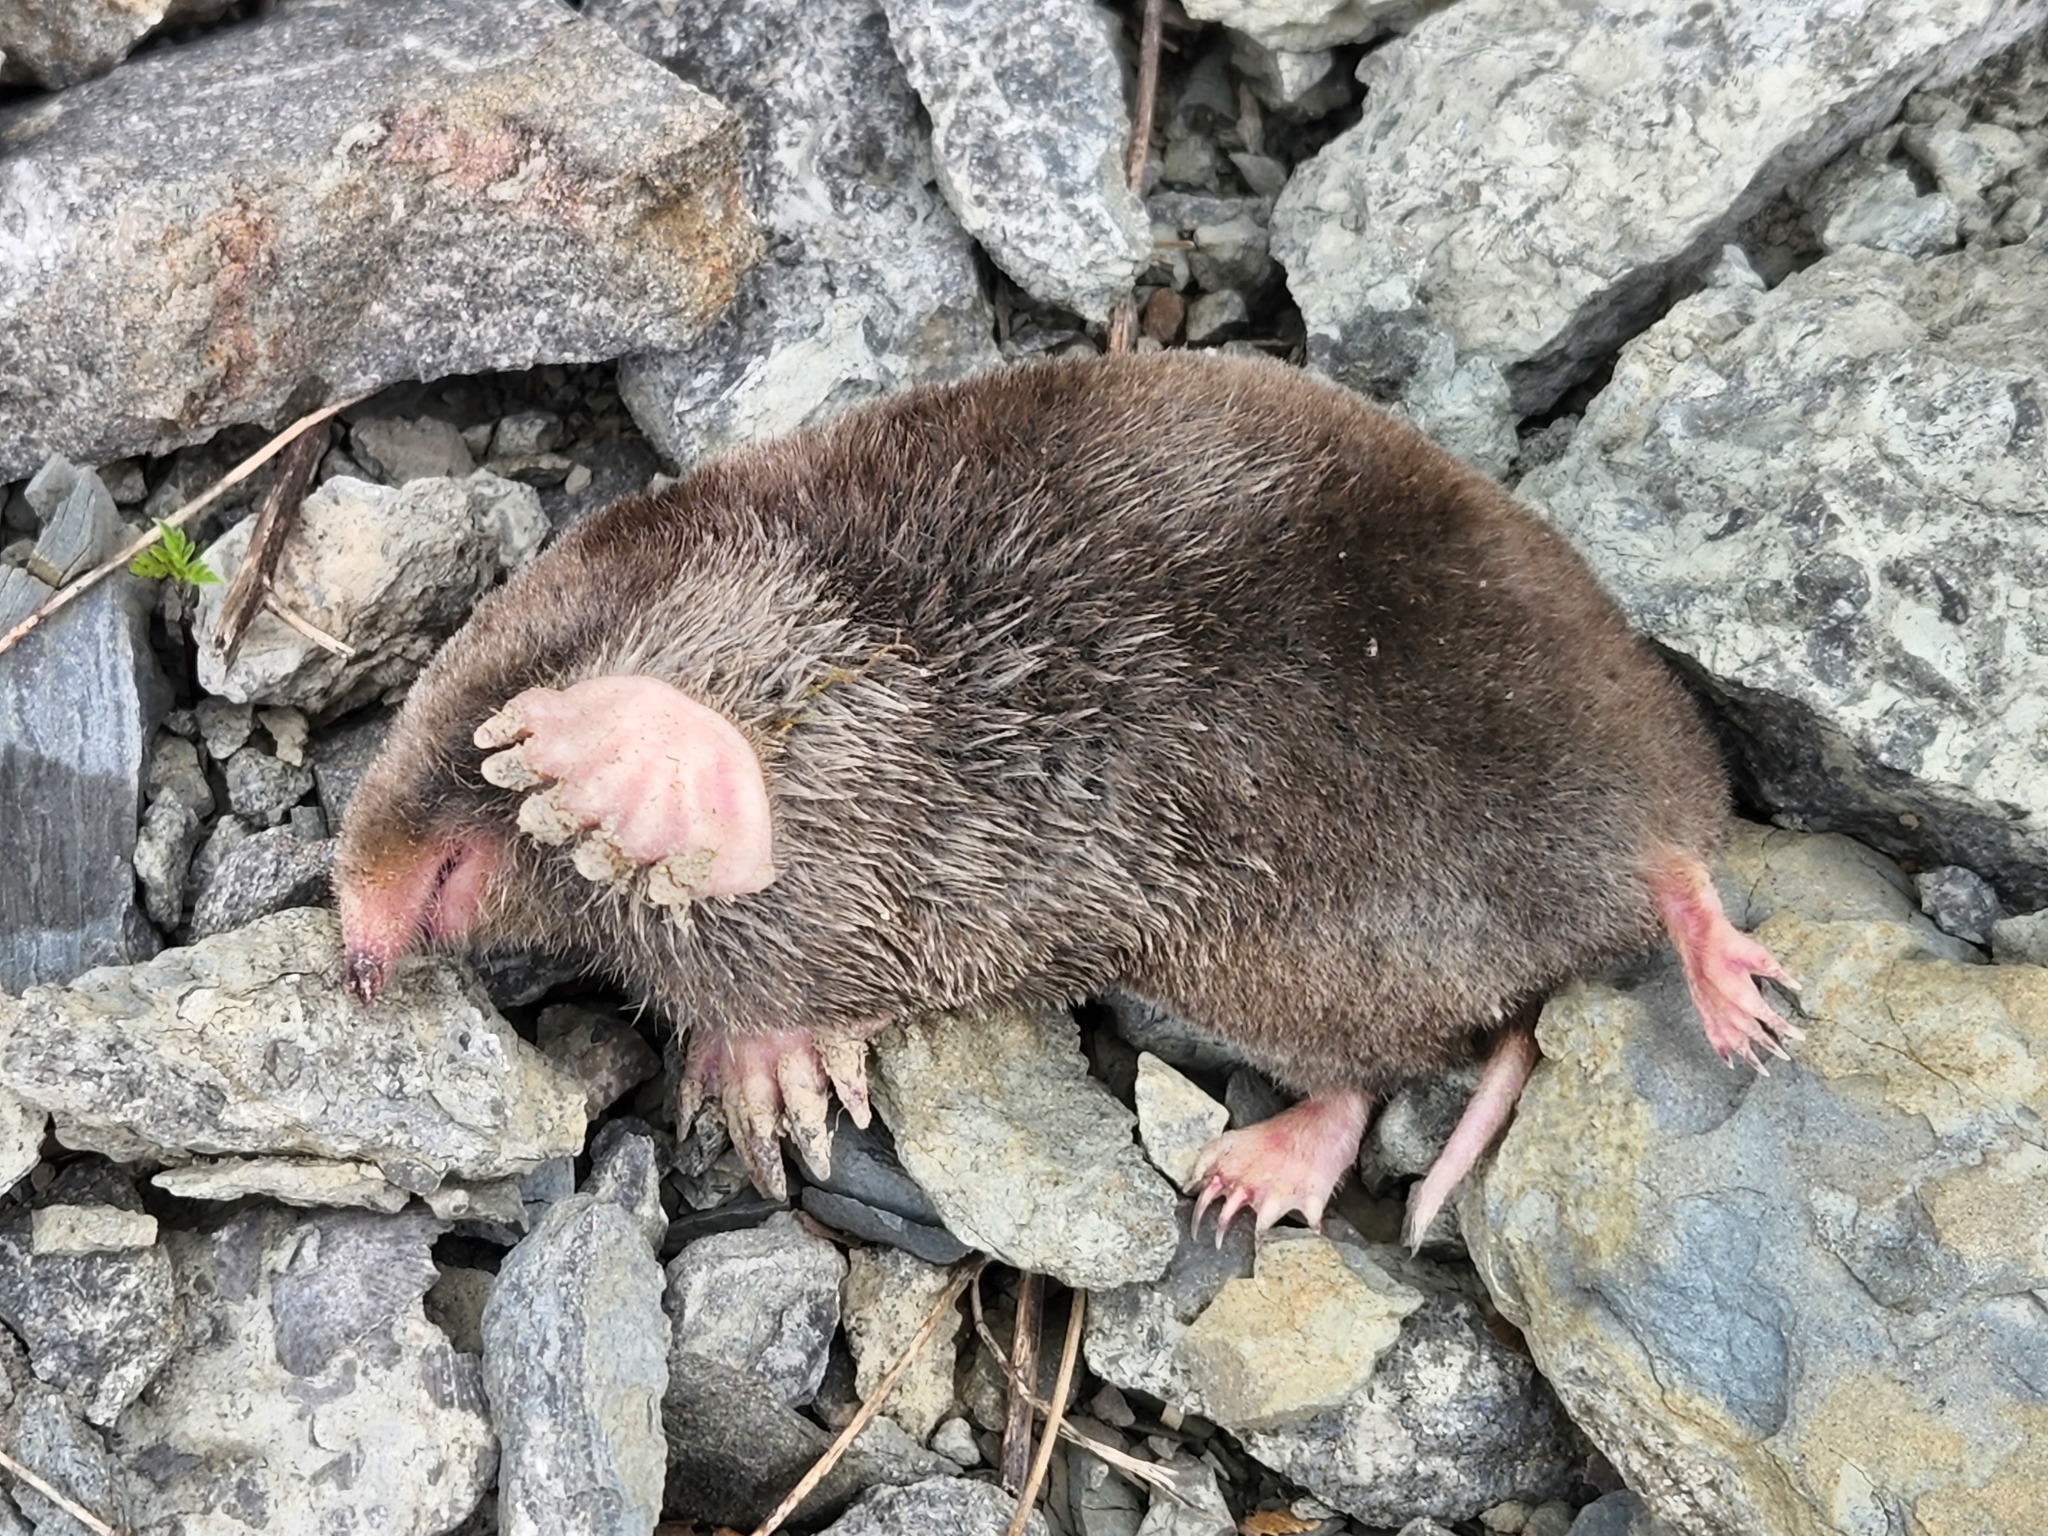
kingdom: Animalia
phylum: Chordata
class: Mammalia
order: Soricomorpha
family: Talpidae
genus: Scalopus
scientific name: Scalopus aquaticus
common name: Eastern mole
